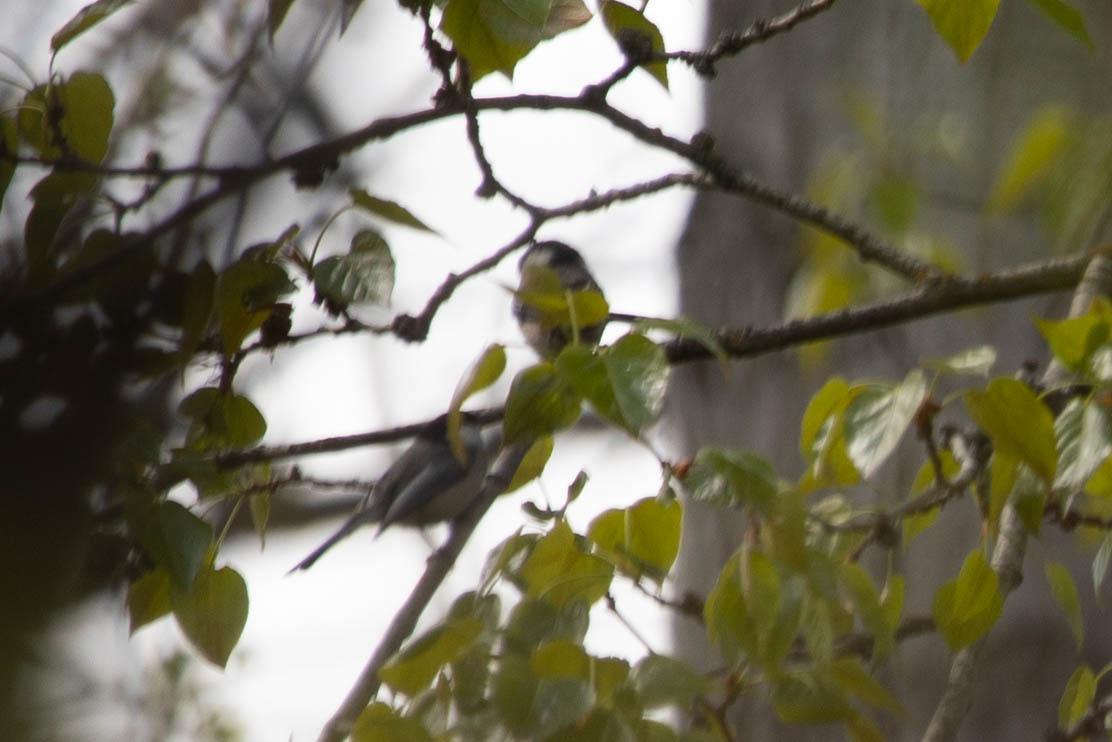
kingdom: Animalia
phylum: Chordata
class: Aves
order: Passeriformes
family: Paridae
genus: Poecile
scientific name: Poecile atricapillus
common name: Black-capped chickadee
